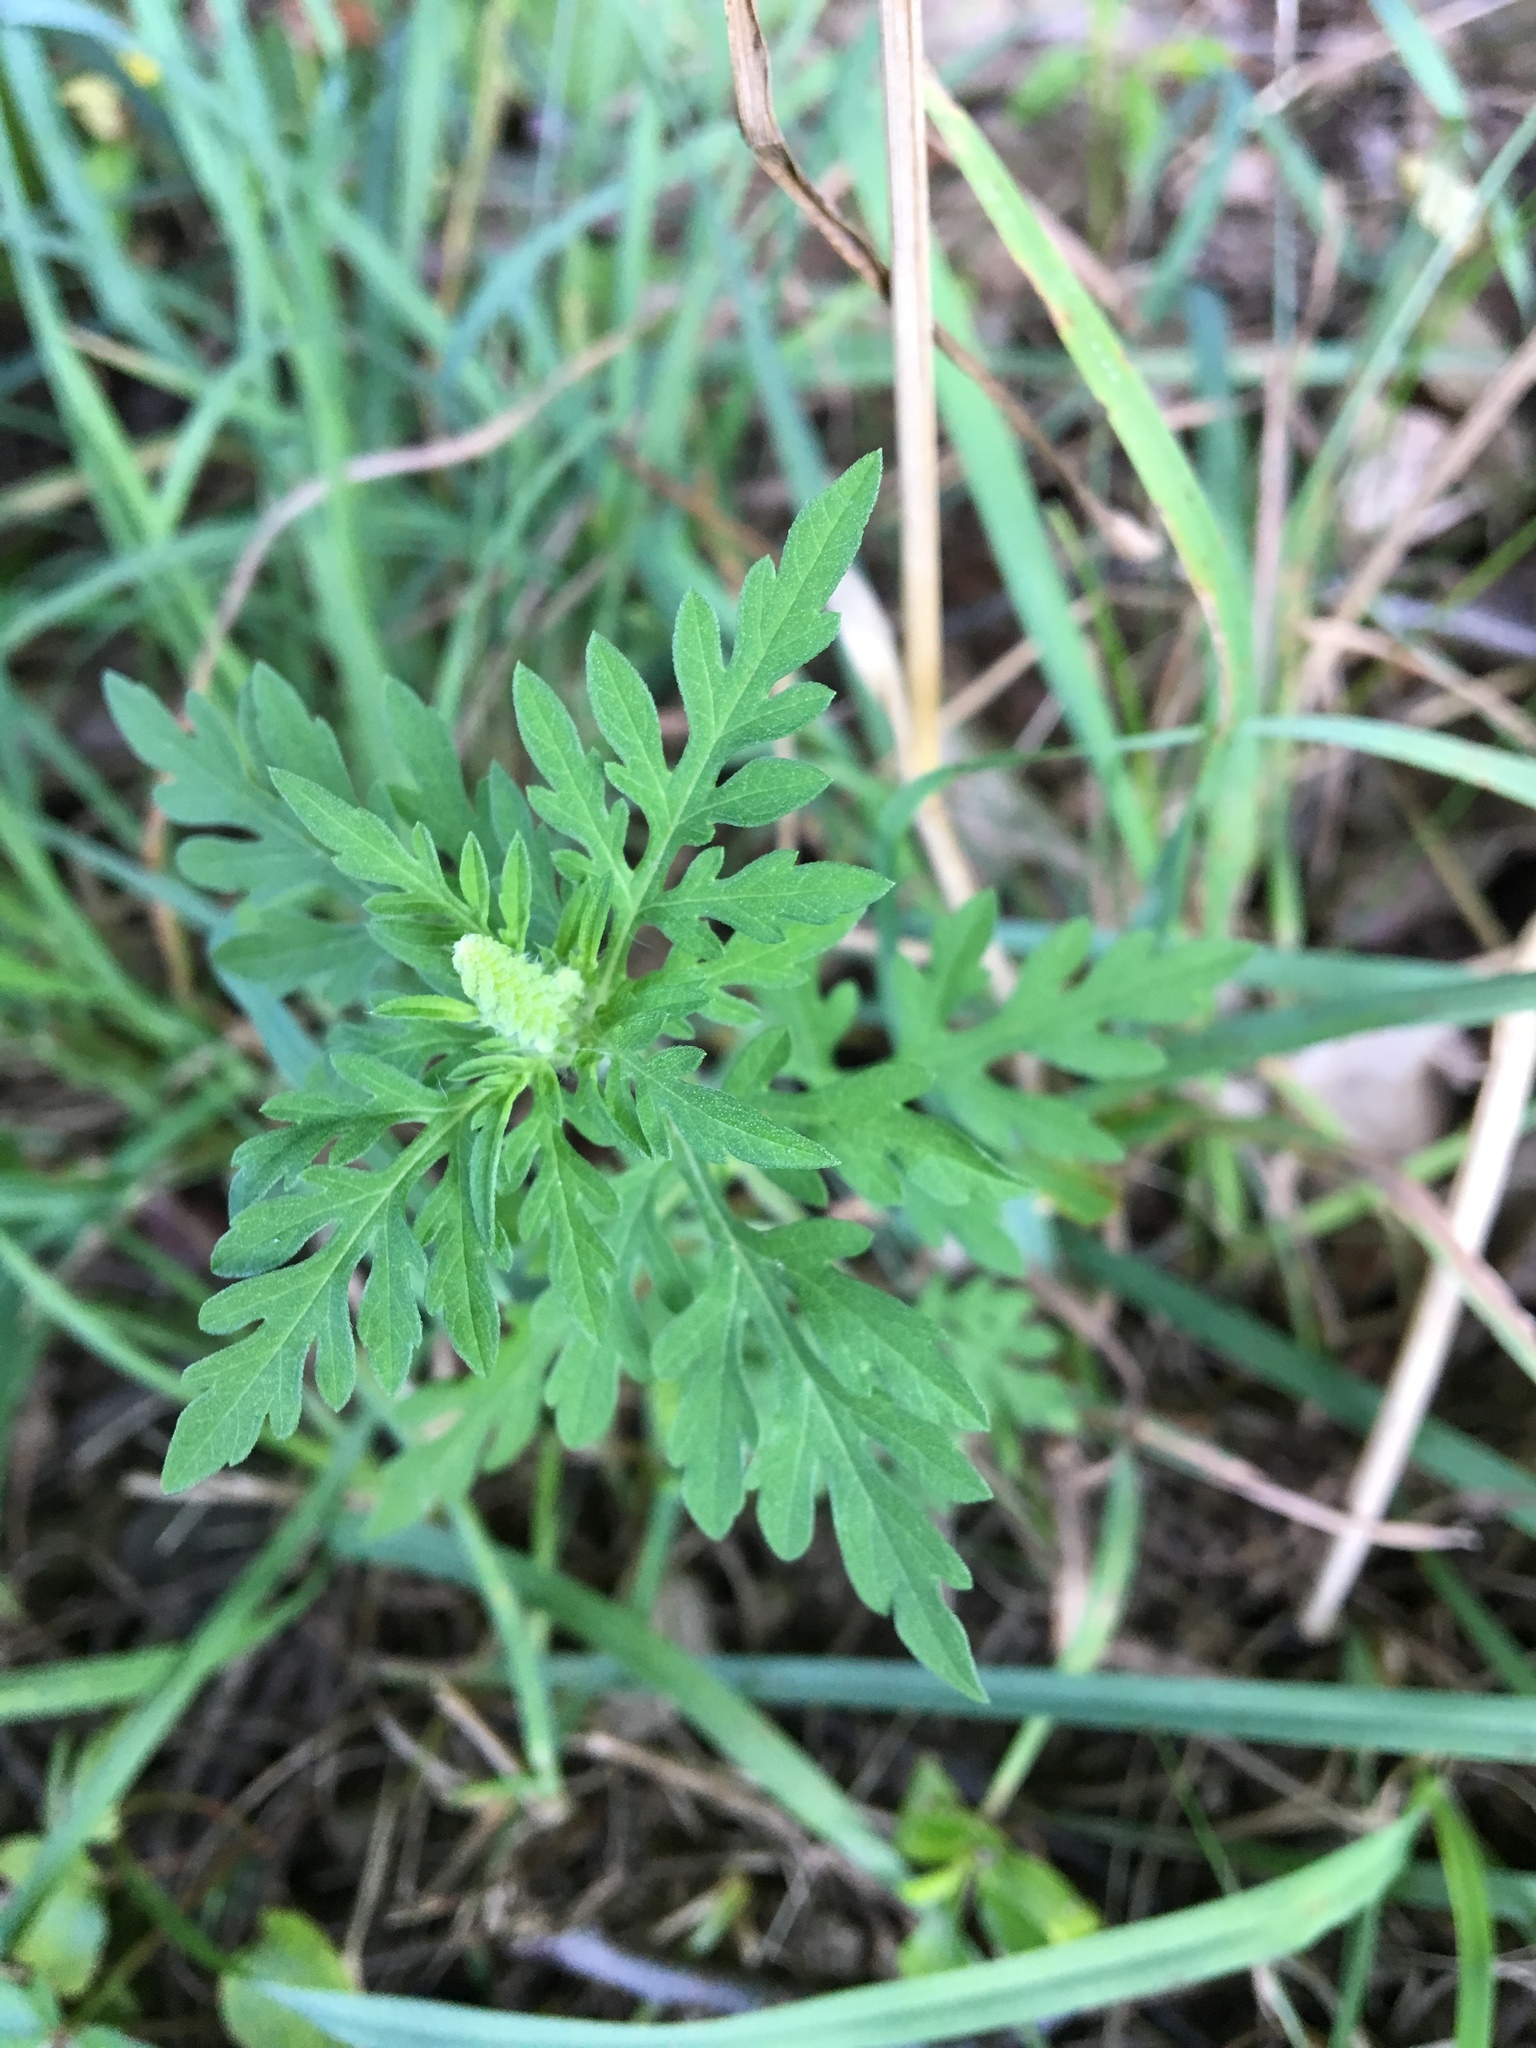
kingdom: Plantae
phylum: Tracheophyta
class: Magnoliopsida
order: Asterales
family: Asteraceae
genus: Ambrosia
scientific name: Ambrosia artemisiifolia
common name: Annual ragweed
